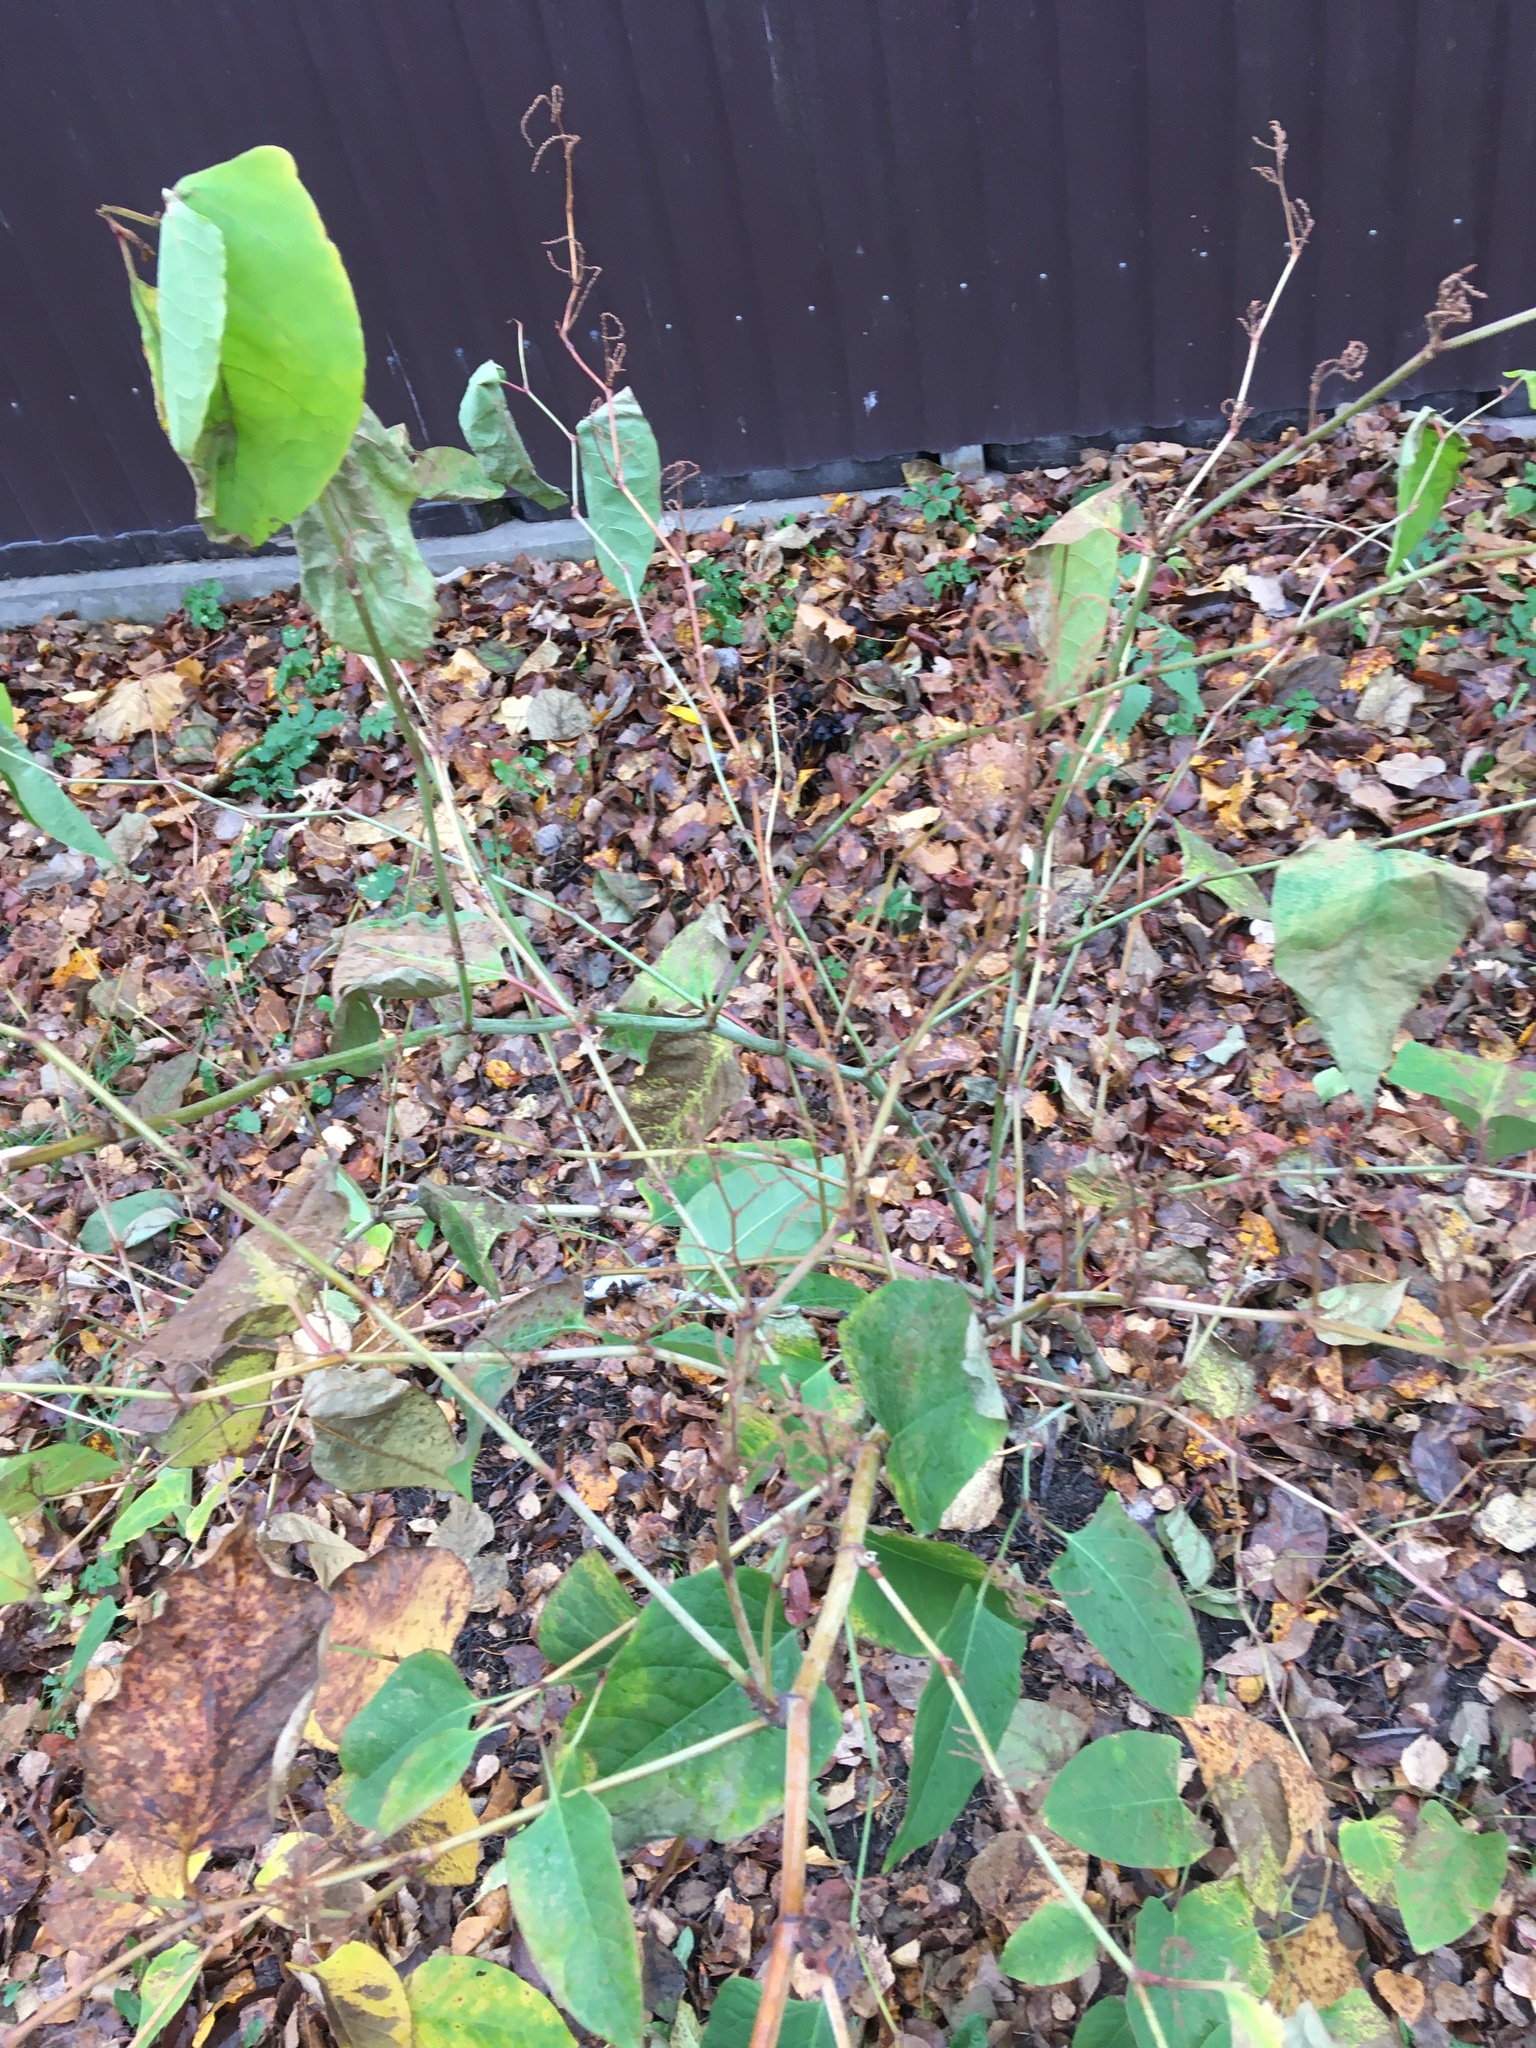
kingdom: Plantae
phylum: Tracheophyta
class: Magnoliopsida
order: Caryophyllales
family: Polygonaceae
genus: Reynoutria
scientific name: Reynoutria japonica
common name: Japanese knotweed
